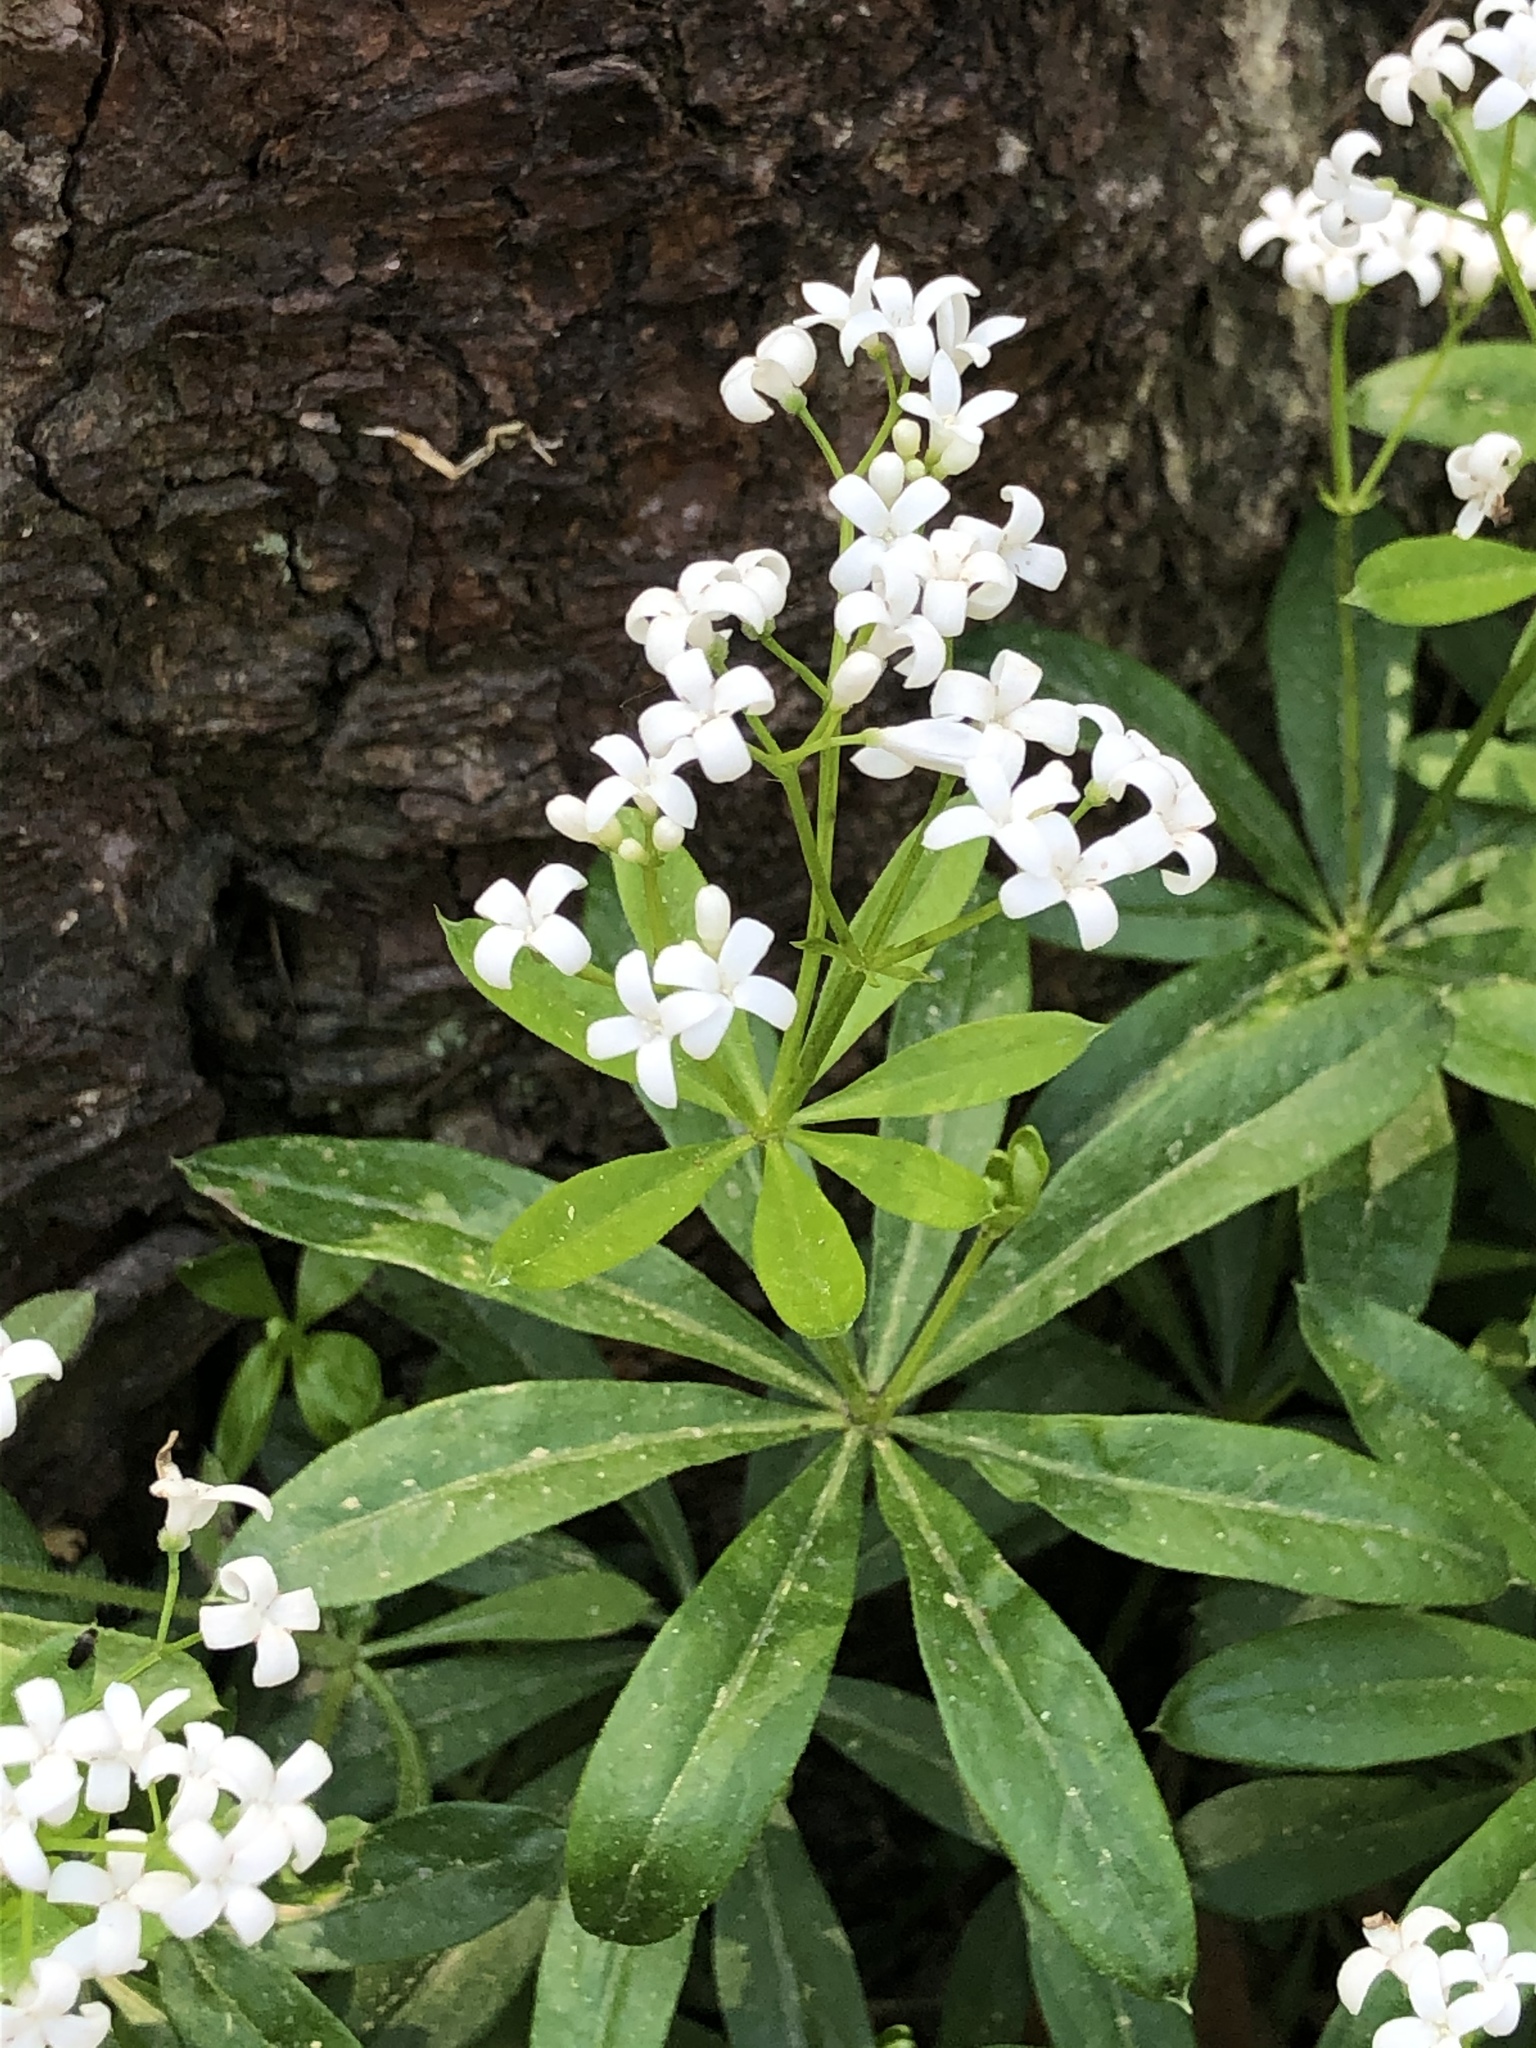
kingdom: Plantae
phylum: Tracheophyta
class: Magnoliopsida
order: Gentianales
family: Rubiaceae
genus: Galium
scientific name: Galium odoratum
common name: Sweet woodruff
